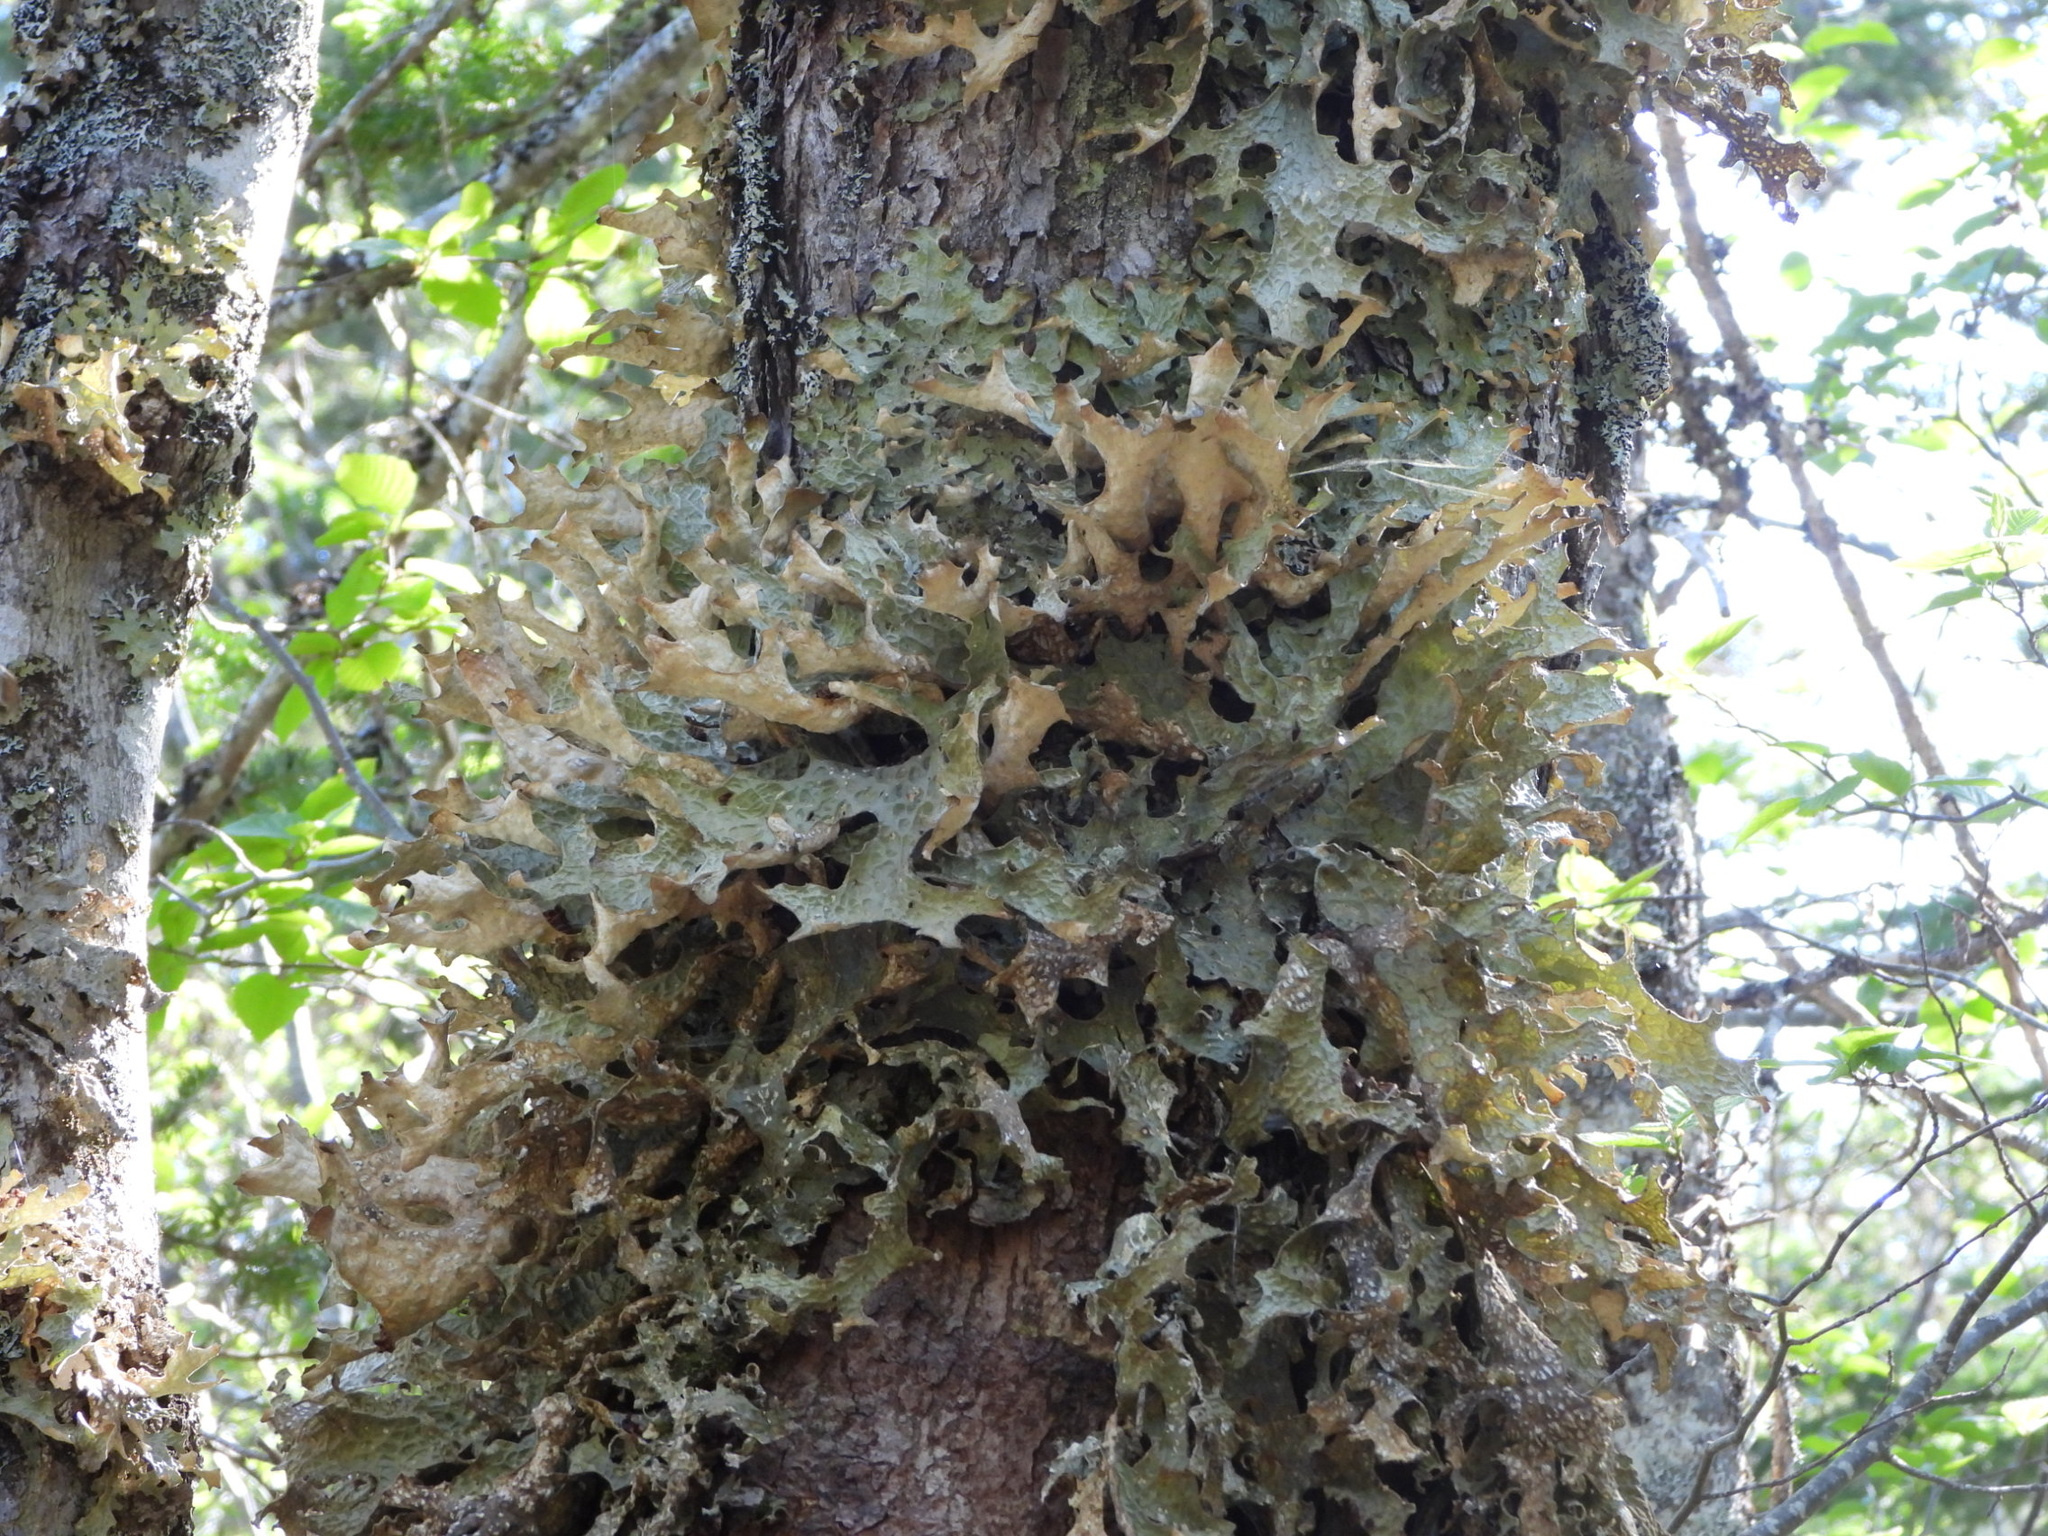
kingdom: Fungi
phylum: Ascomycota
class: Lecanoromycetes
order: Peltigerales
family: Lobariaceae
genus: Lobaria
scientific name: Lobaria pulmonaria
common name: Lungwort
